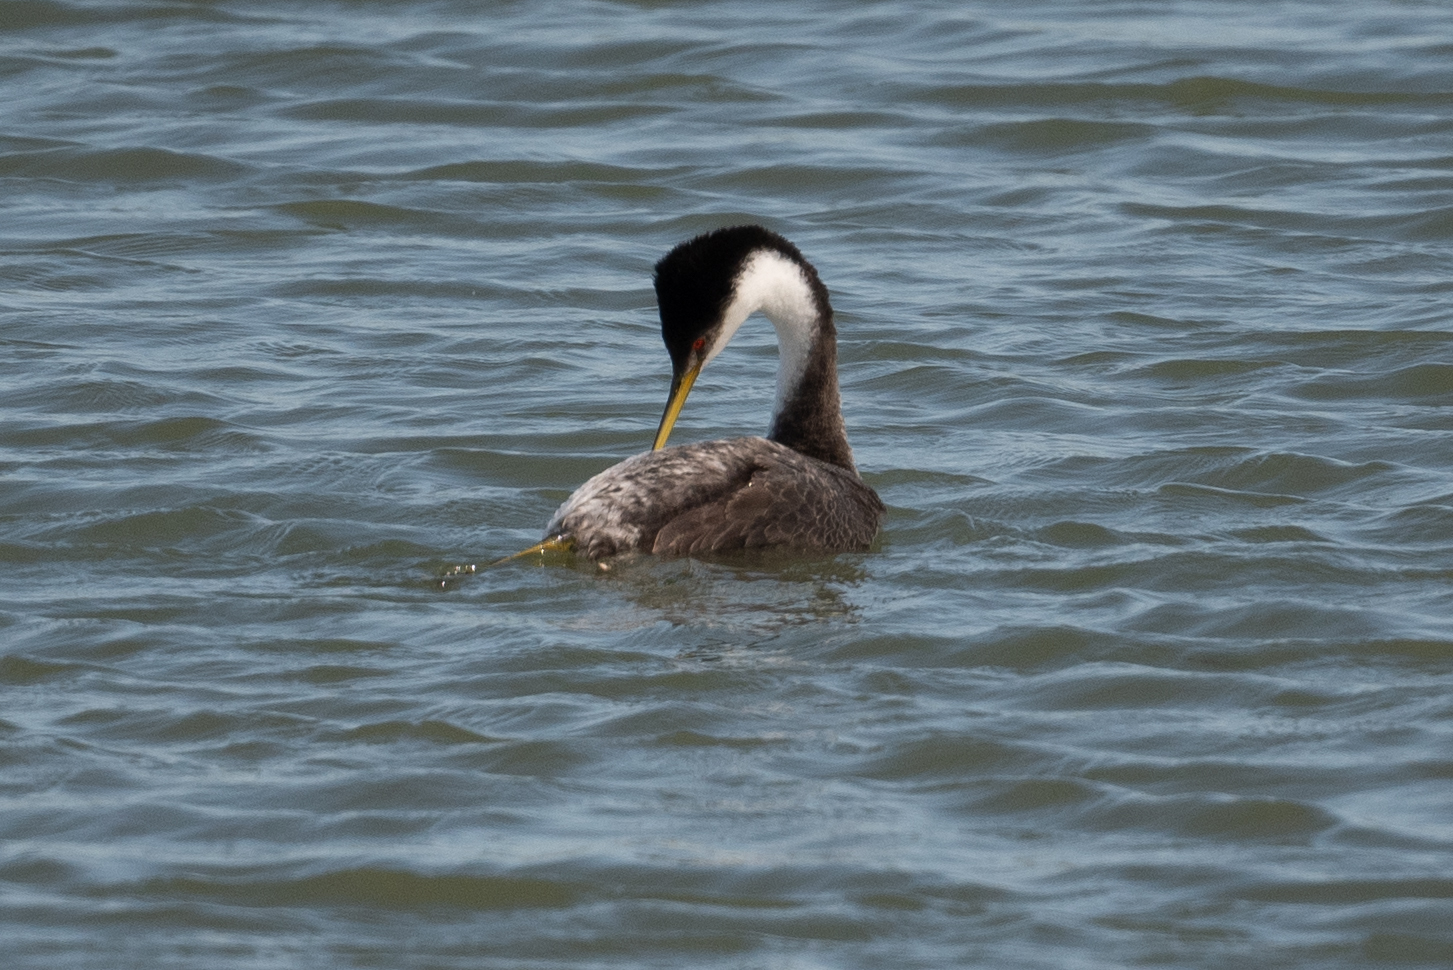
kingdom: Animalia
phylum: Chordata
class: Aves
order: Podicipediformes
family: Podicipedidae
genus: Aechmophorus
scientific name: Aechmophorus occidentalis
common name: Western grebe
